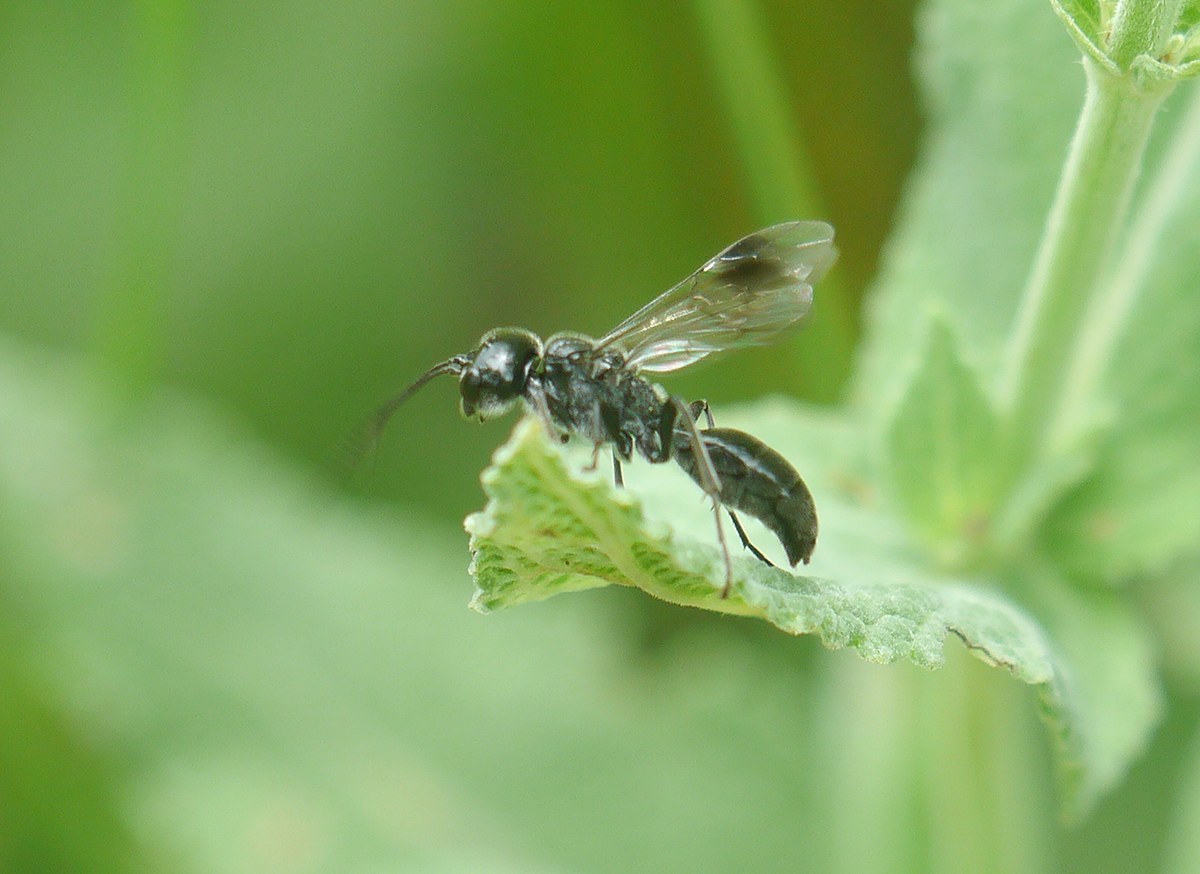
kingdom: Animalia
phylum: Arthropoda
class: Insecta
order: Hymenoptera
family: Trigonalidae
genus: Pseudogonalos
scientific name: Pseudogonalos hahnii
